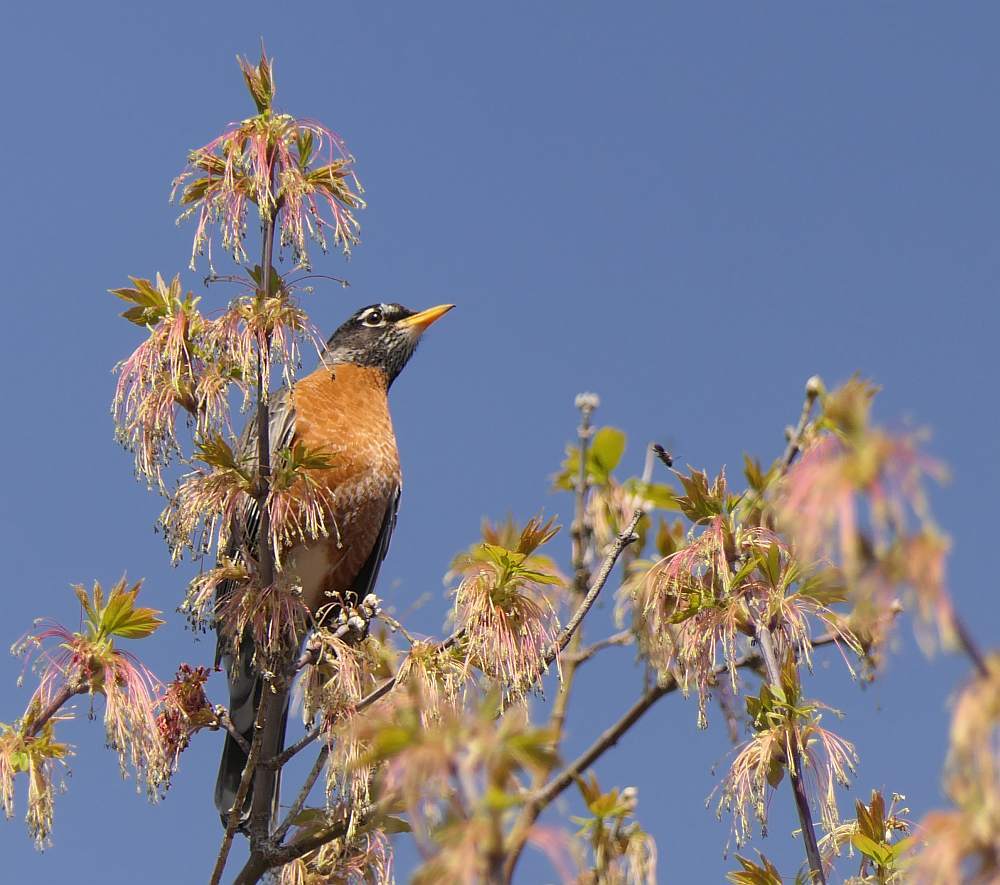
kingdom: Animalia
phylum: Chordata
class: Aves
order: Passeriformes
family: Turdidae
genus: Turdus
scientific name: Turdus migratorius
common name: American robin
